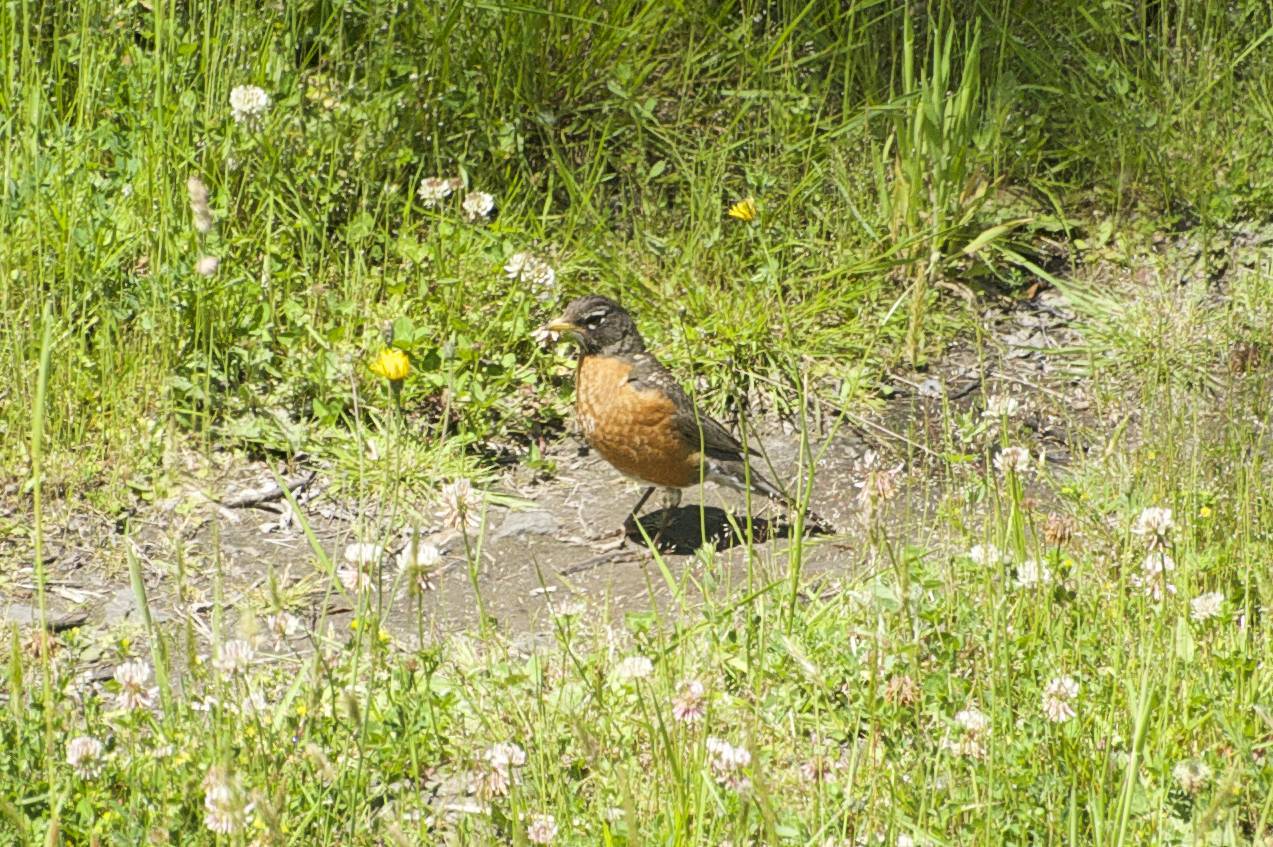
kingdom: Animalia
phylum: Chordata
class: Aves
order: Passeriformes
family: Turdidae
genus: Turdus
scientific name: Turdus migratorius
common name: American robin
